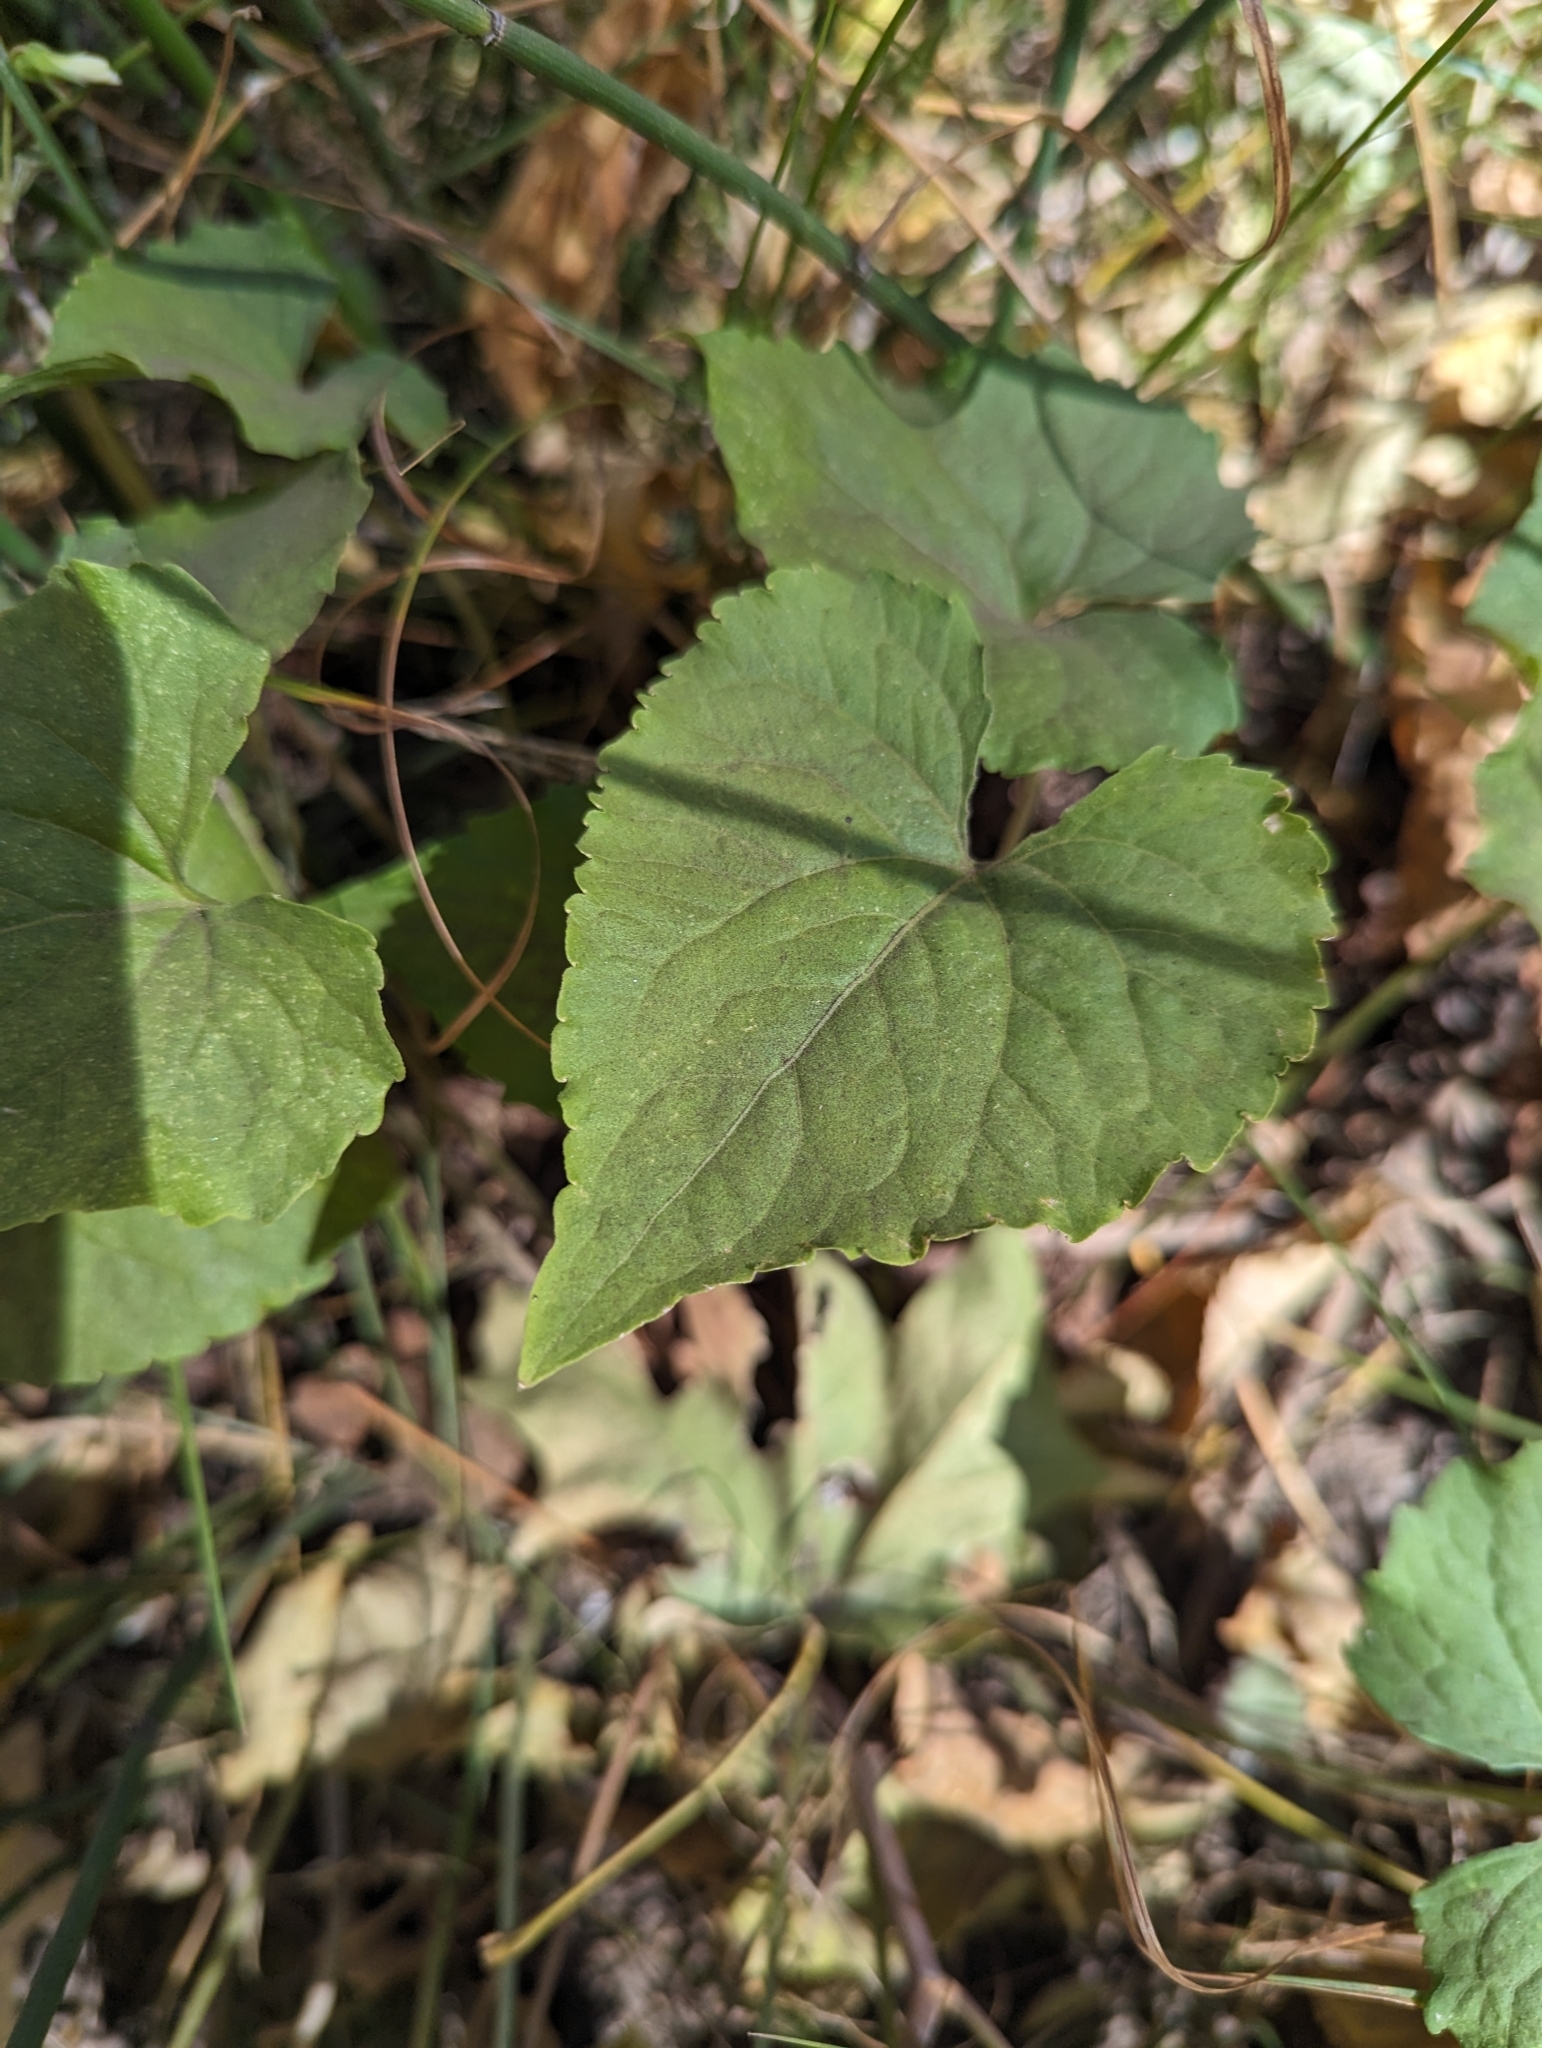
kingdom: Plantae
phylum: Tracheophyta
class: Magnoliopsida
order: Malpighiales
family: Violaceae
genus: Viola
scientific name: Viola canadensis
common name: Canada violet
